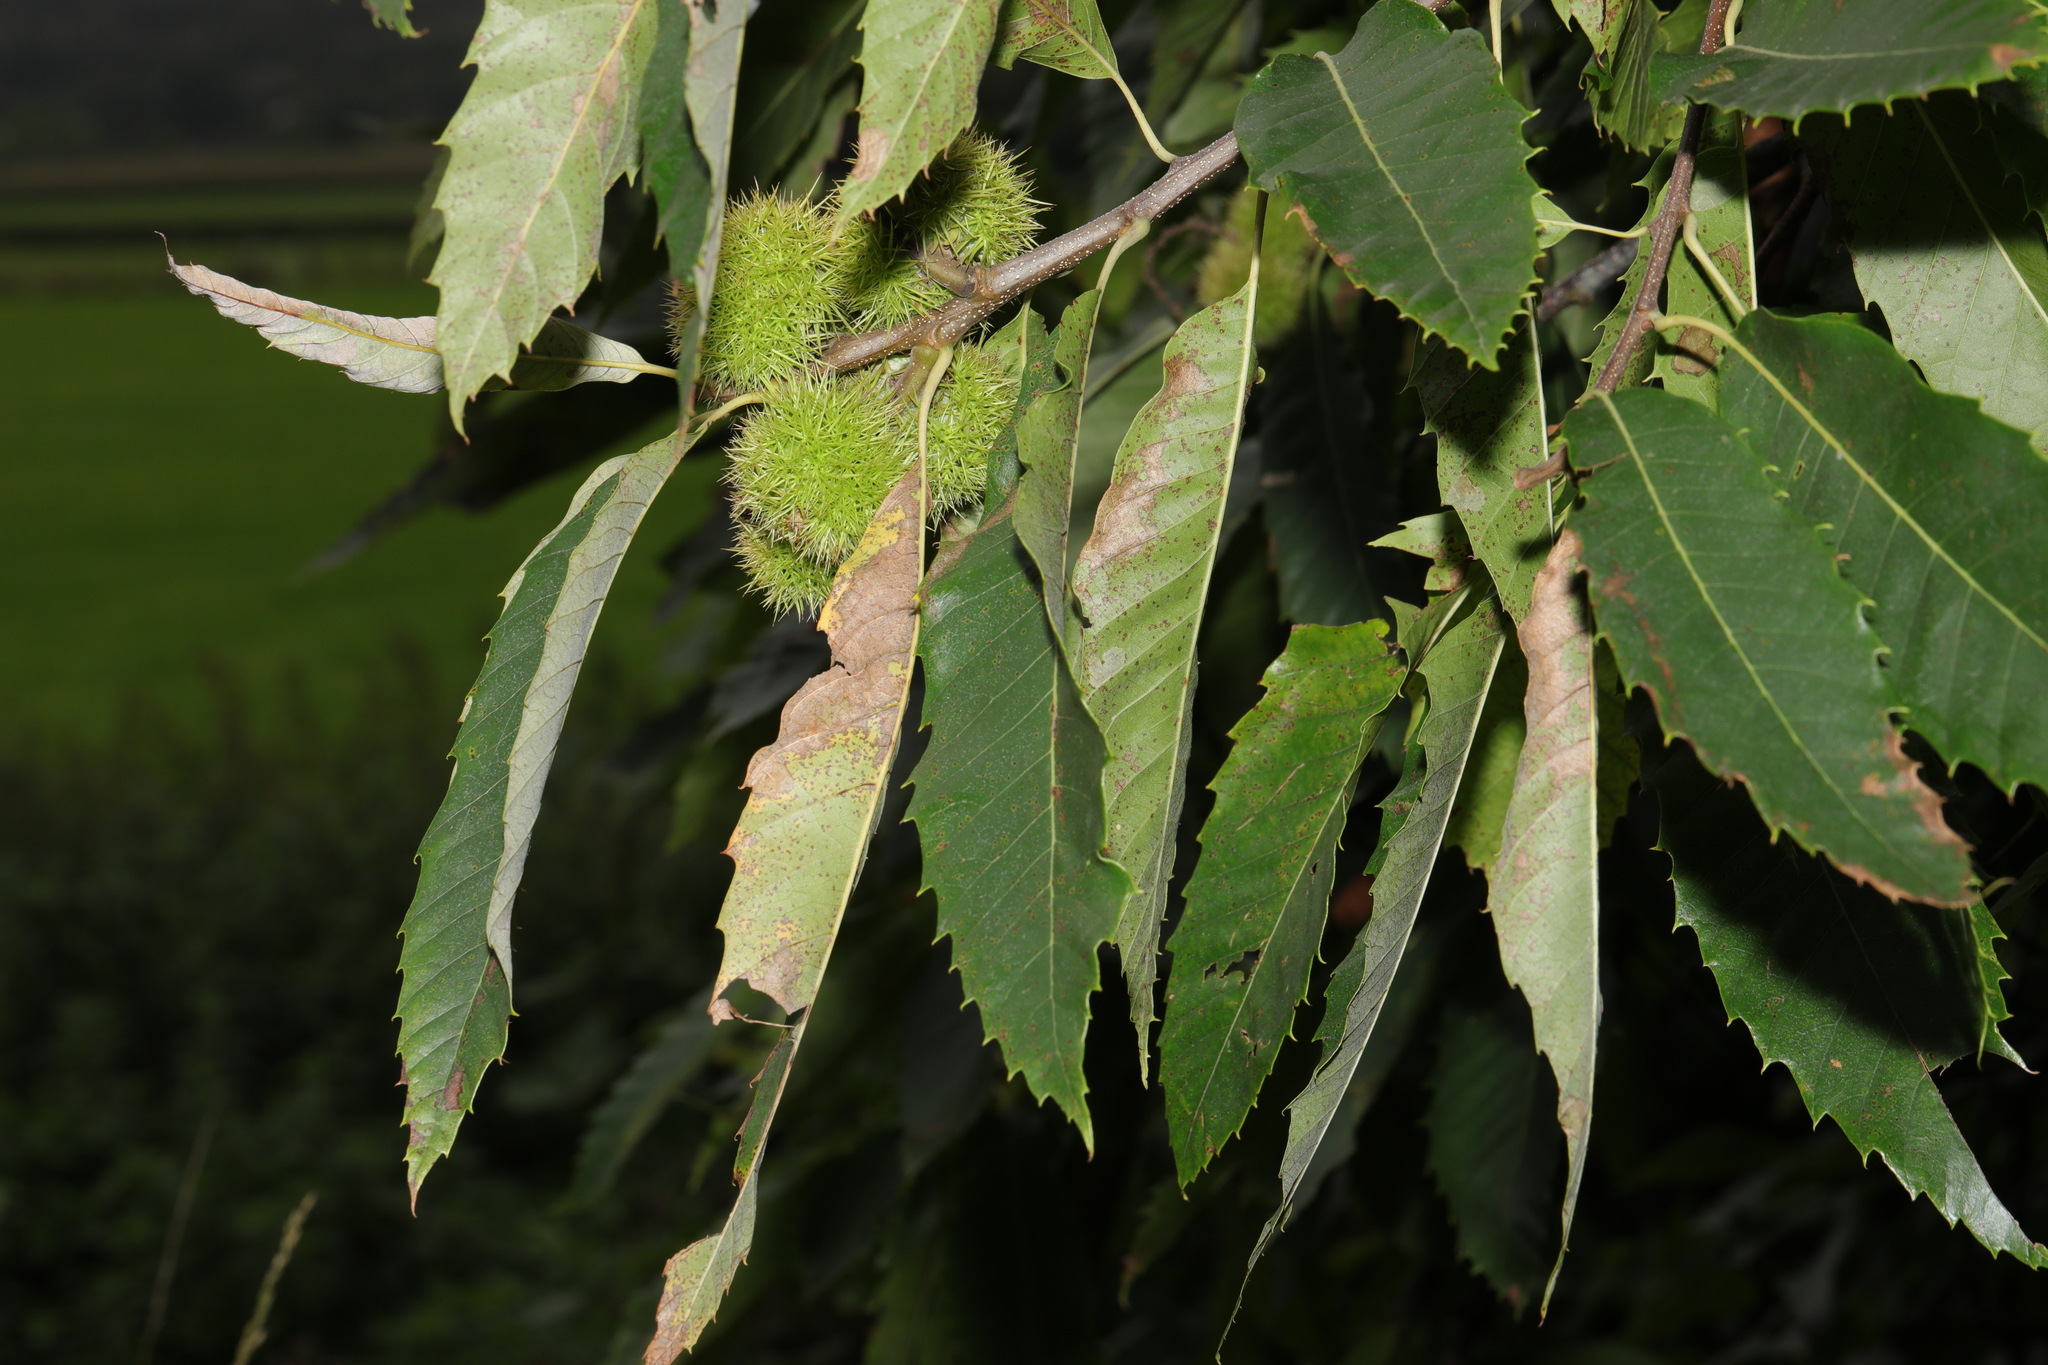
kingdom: Plantae
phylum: Tracheophyta
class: Magnoliopsida
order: Fagales
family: Fagaceae
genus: Castanea
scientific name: Castanea sativa
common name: Sweet chestnut
